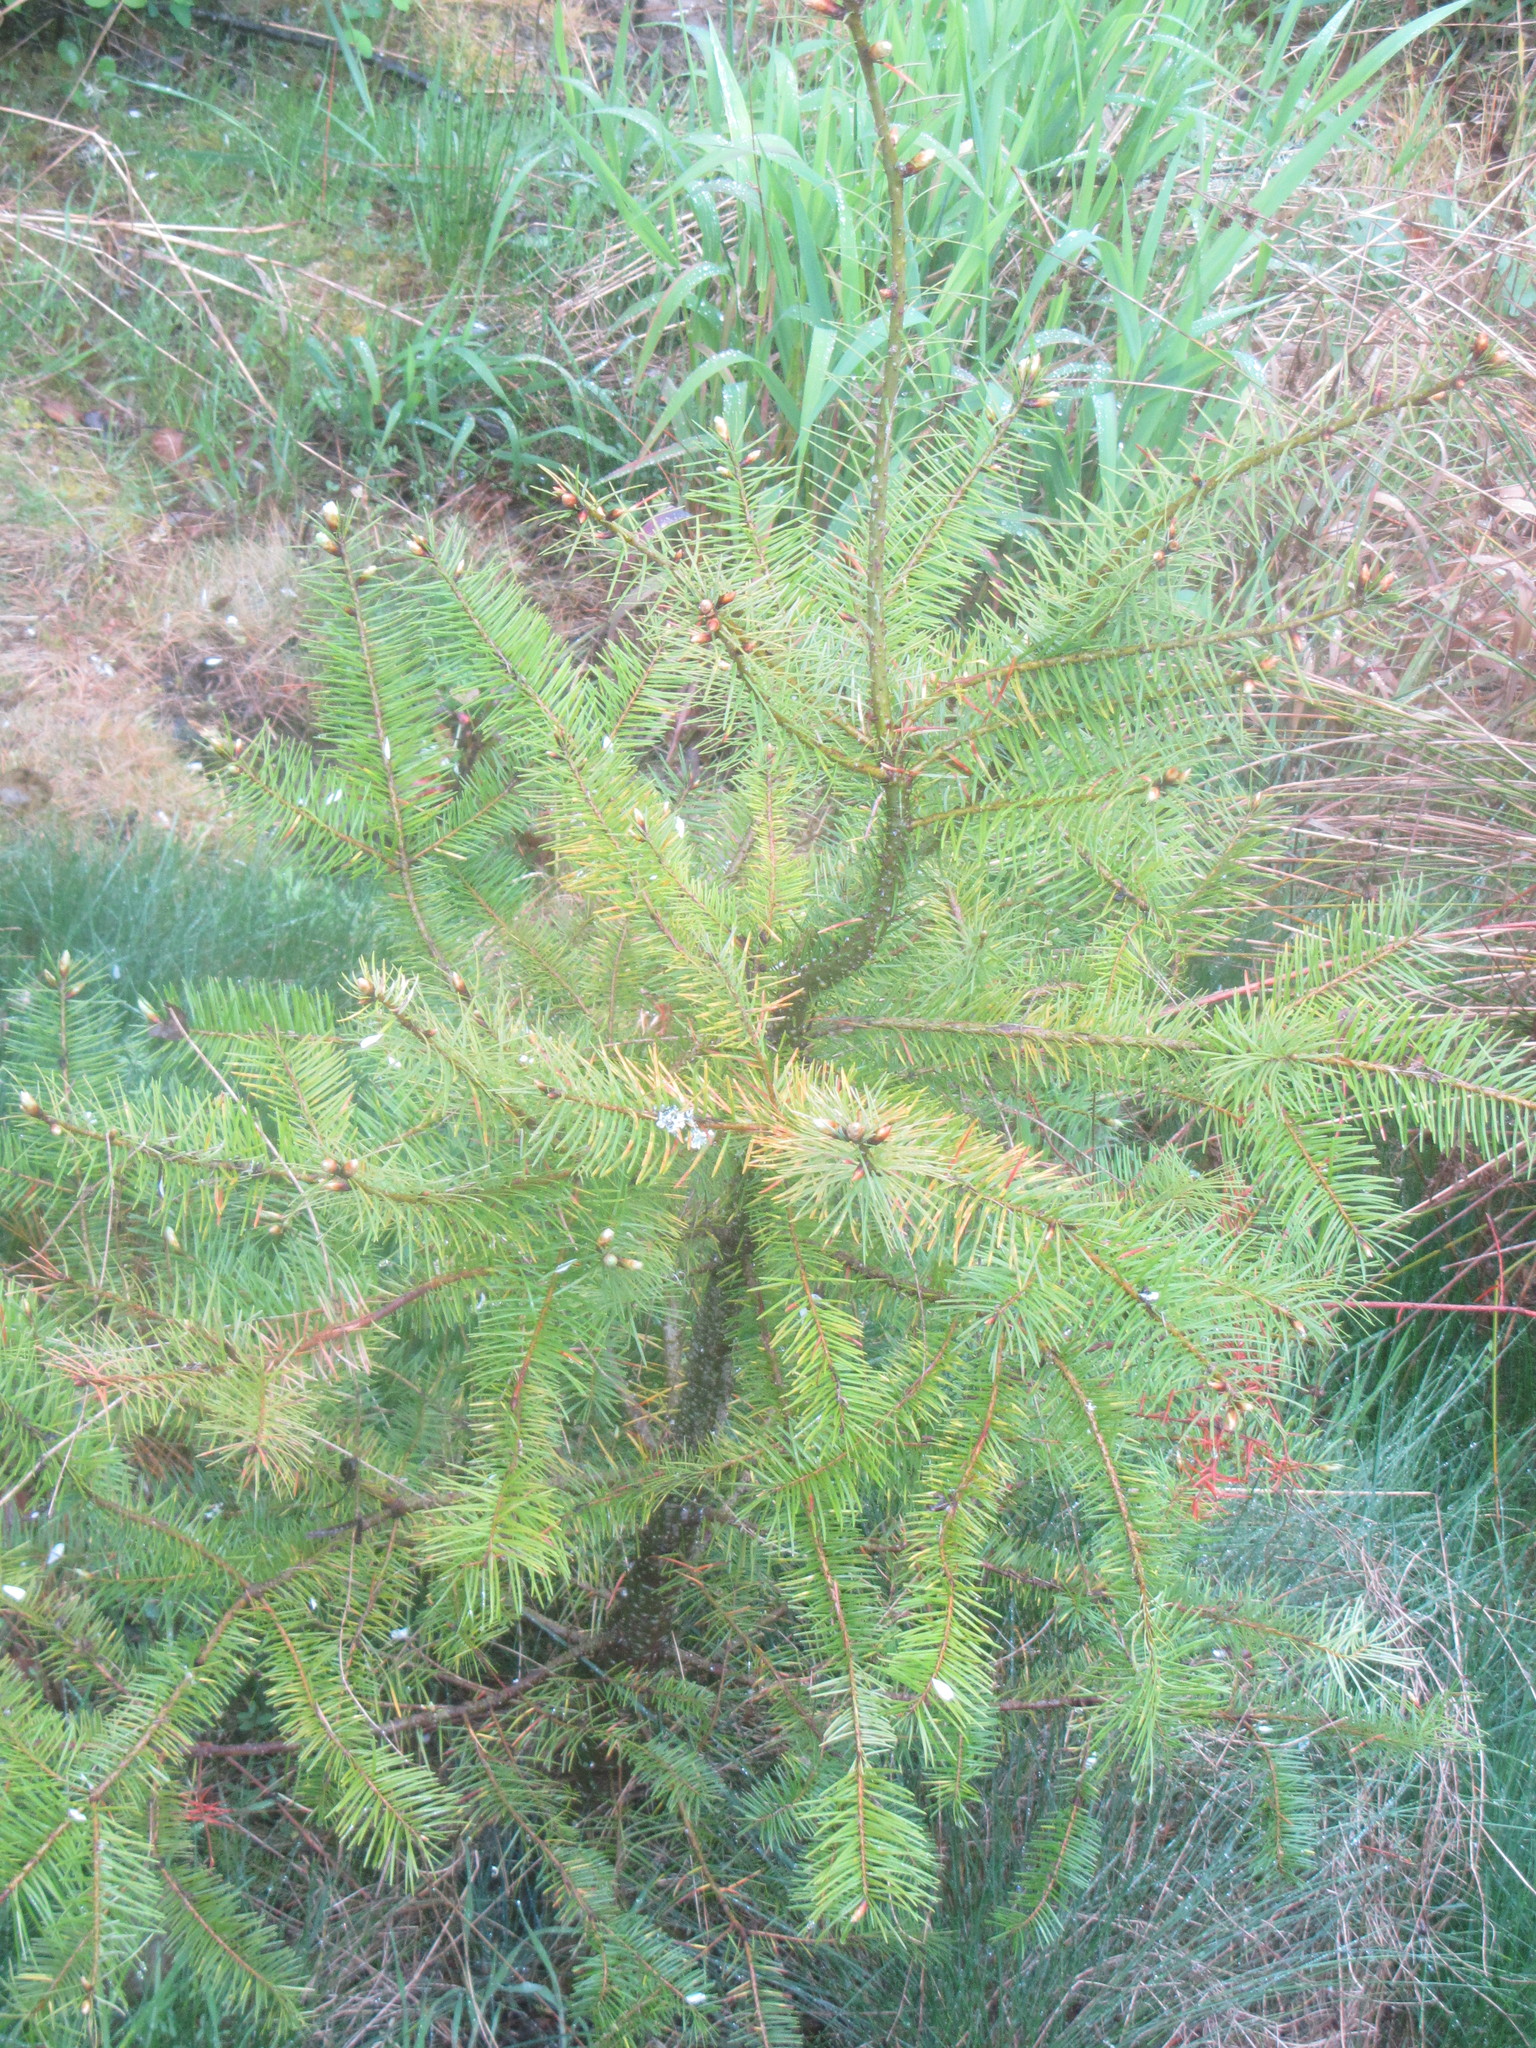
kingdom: Plantae
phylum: Tracheophyta
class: Pinopsida
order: Pinales
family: Pinaceae
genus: Pseudotsuga
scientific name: Pseudotsuga menziesii
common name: Douglas fir
